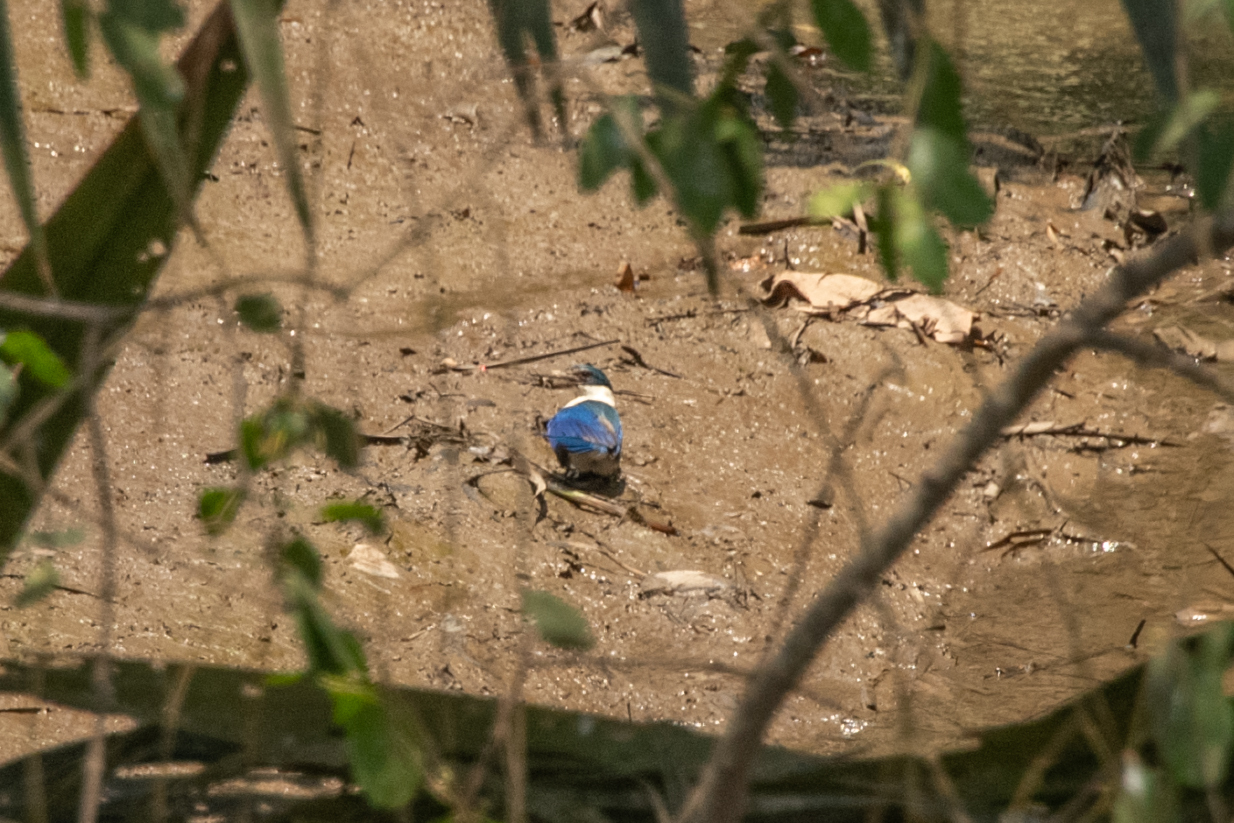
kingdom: Animalia
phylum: Chordata
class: Aves
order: Coraciiformes
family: Alcedinidae
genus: Todiramphus
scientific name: Todiramphus chloris
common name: Collared kingfisher
